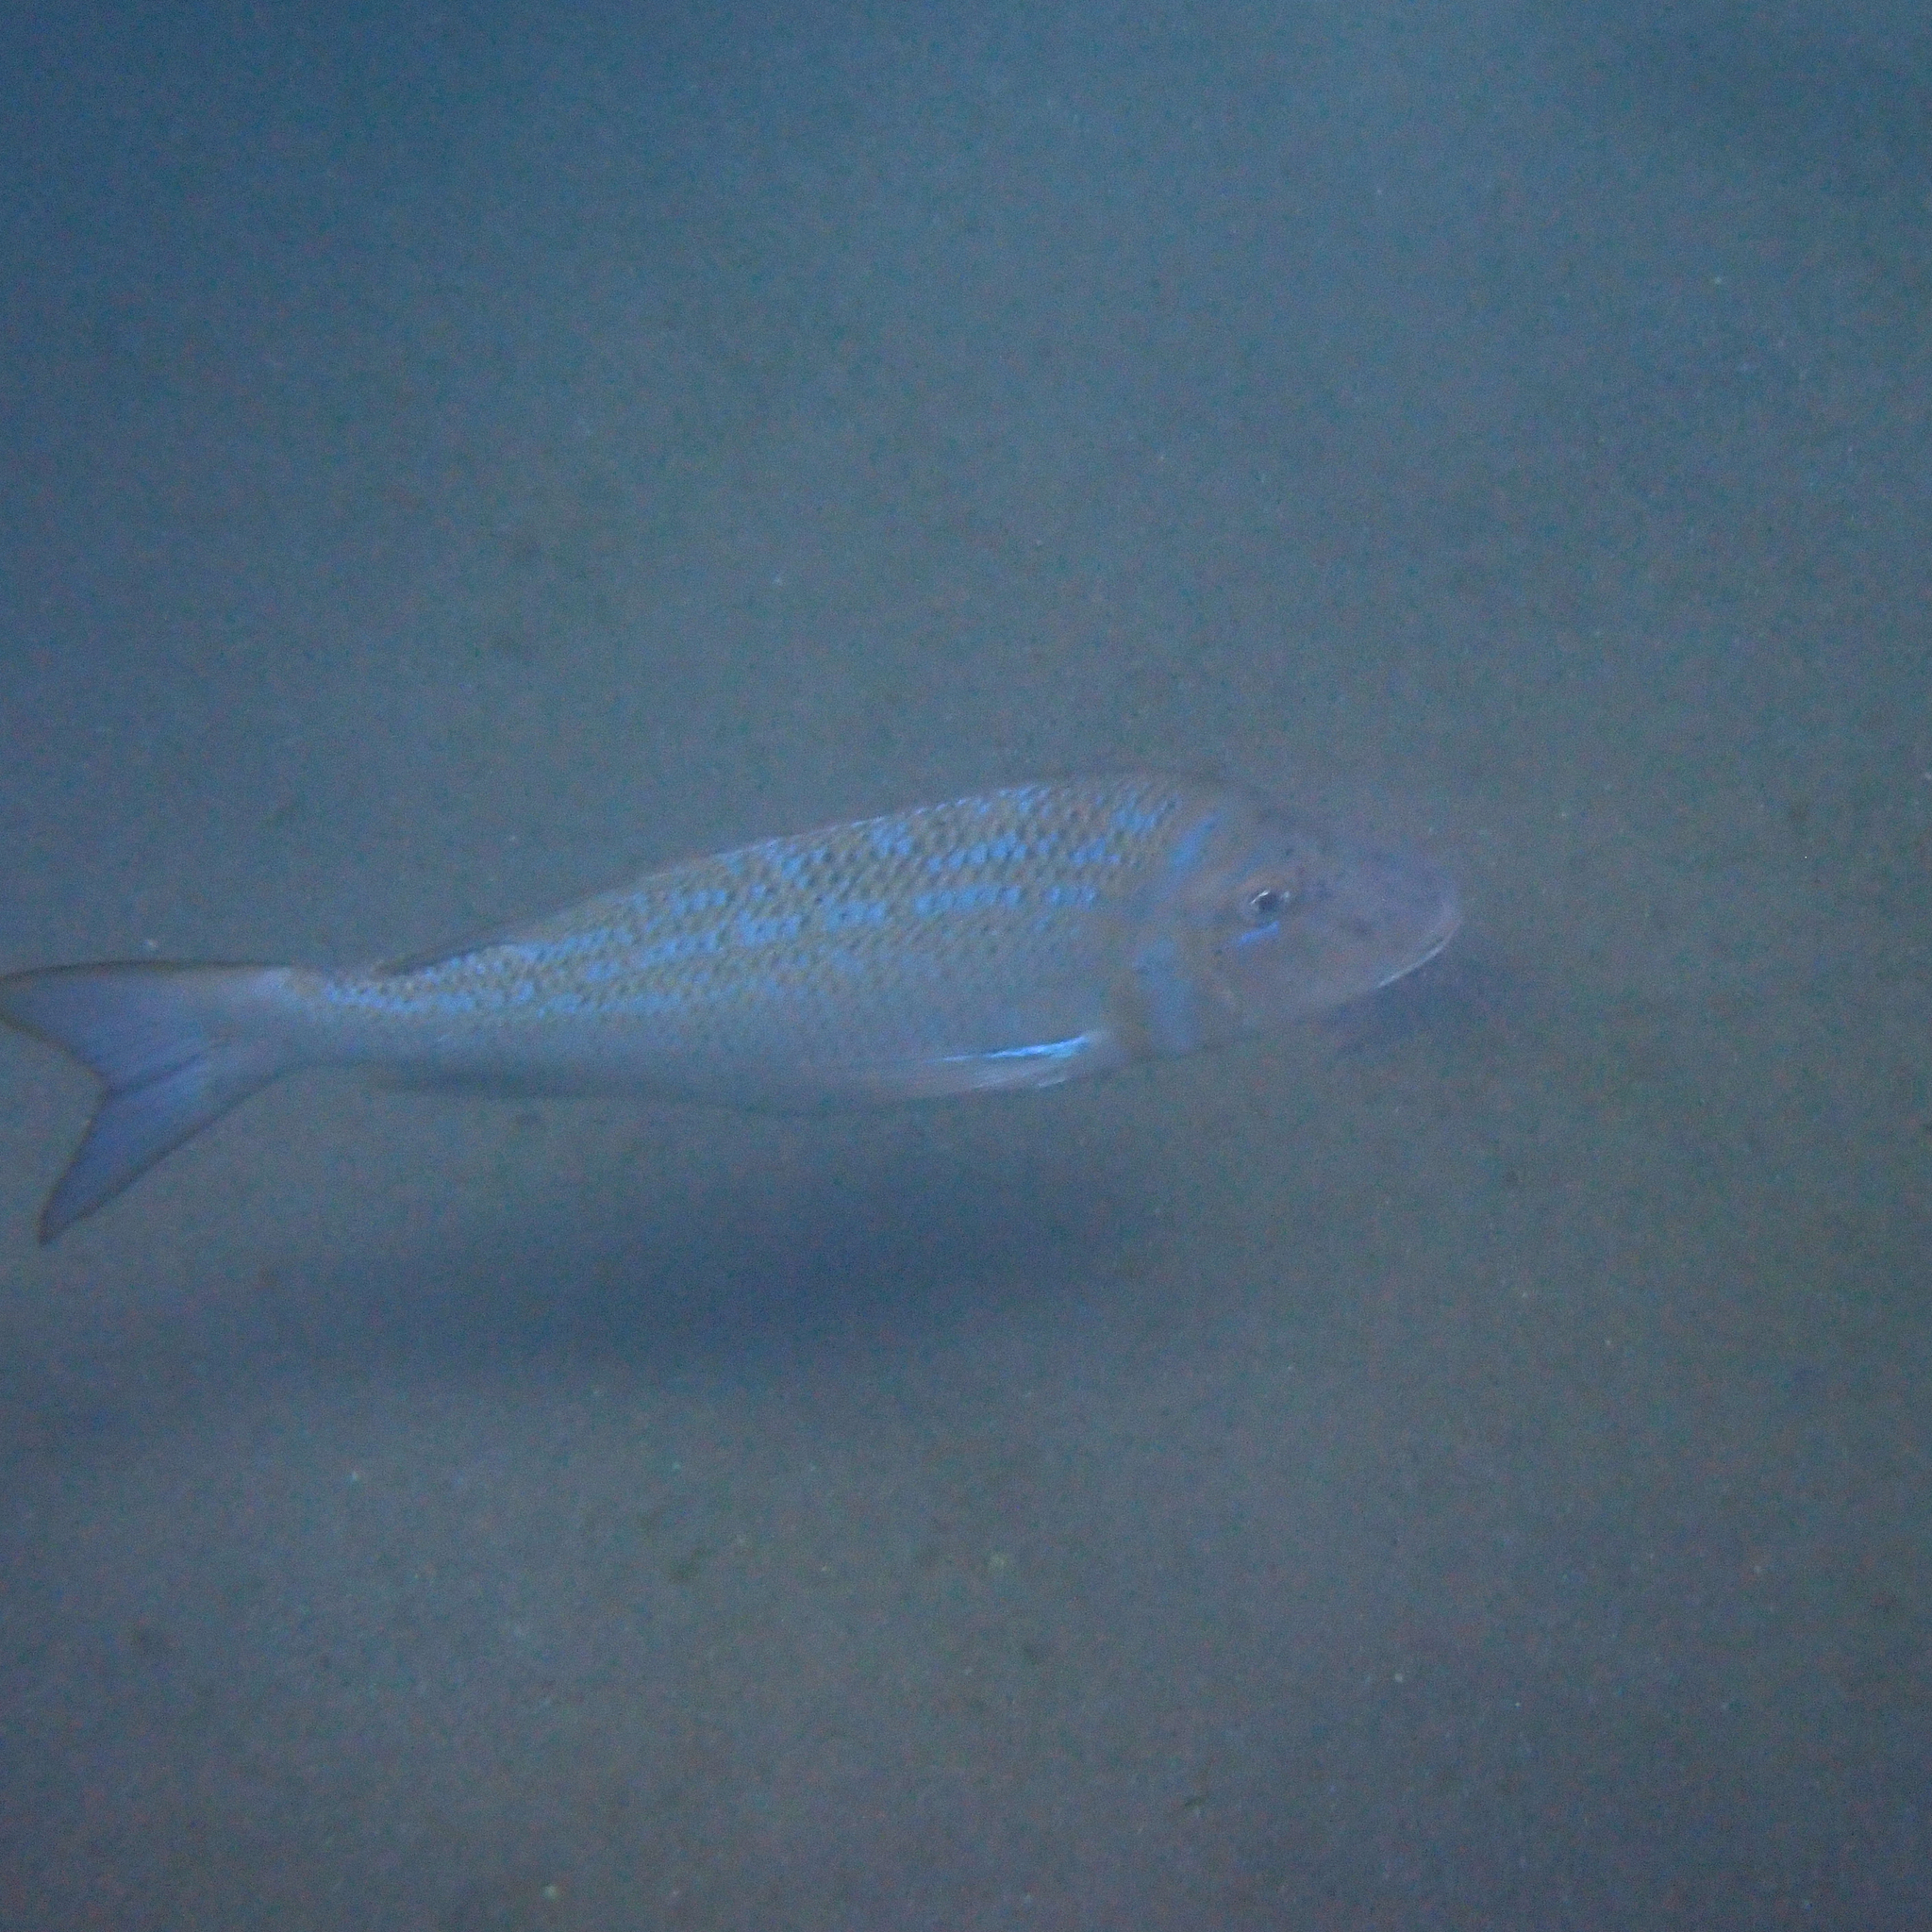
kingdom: Animalia
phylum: Chordata
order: Perciformes
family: Lethrinidae
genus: Lethrinus
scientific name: Lethrinus nebulosus
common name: Spangled emperor
